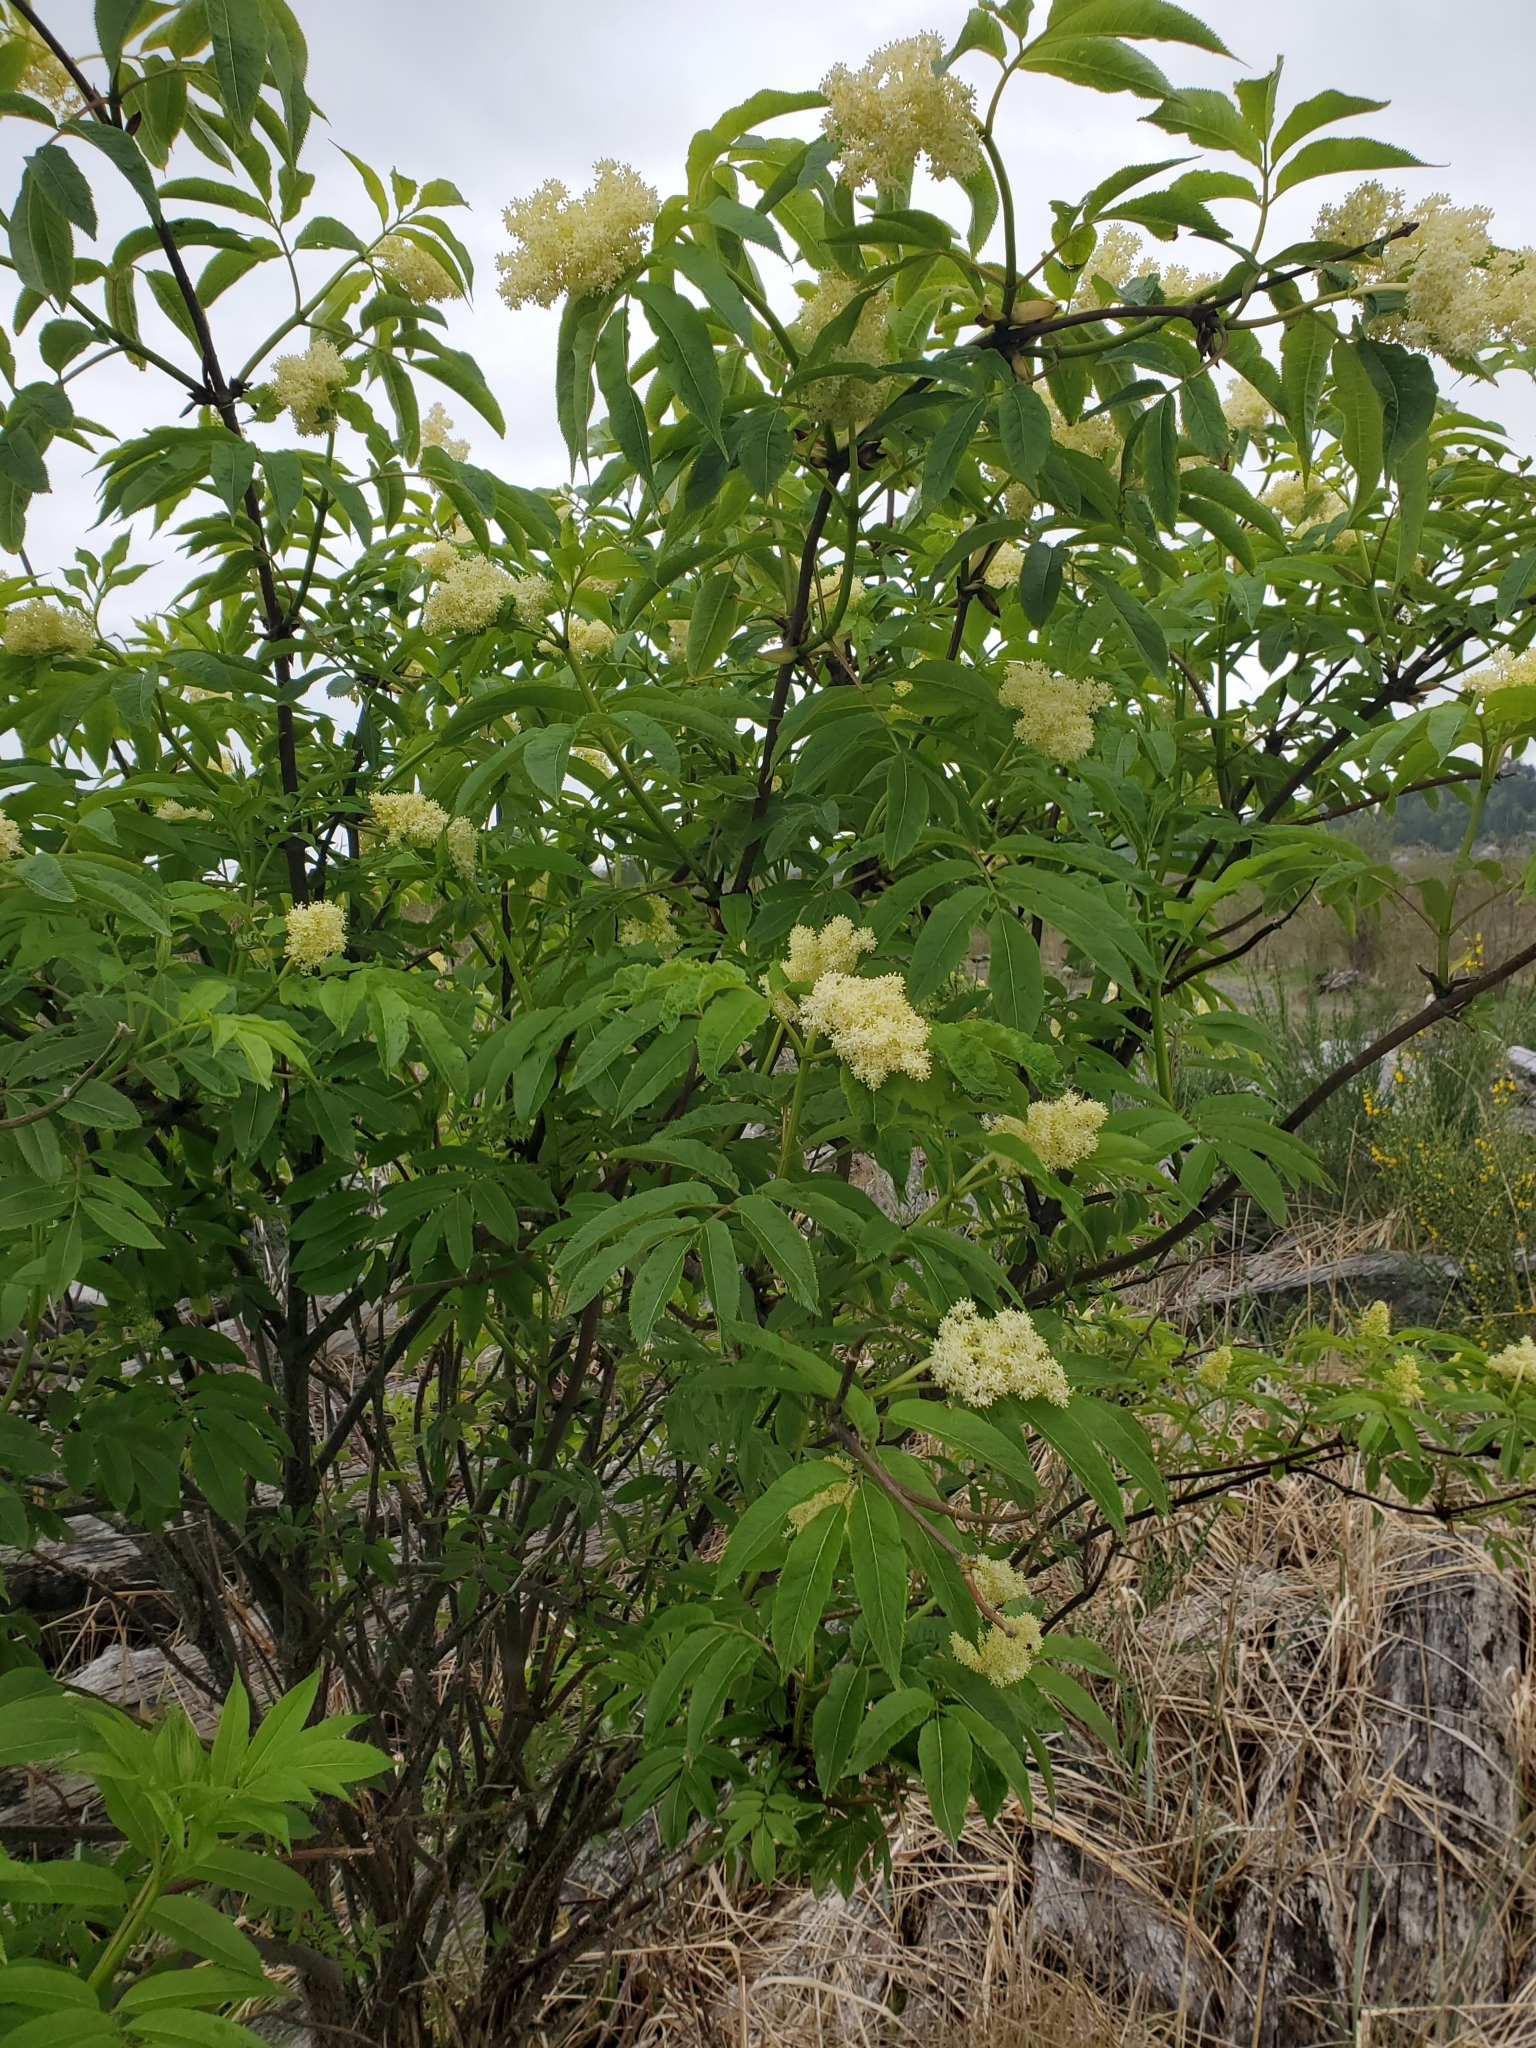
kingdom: Plantae
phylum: Tracheophyta
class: Magnoliopsida
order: Dipsacales
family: Viburnaceae
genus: Sambucus
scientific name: Sambucus racemosa
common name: Red-berried elder
